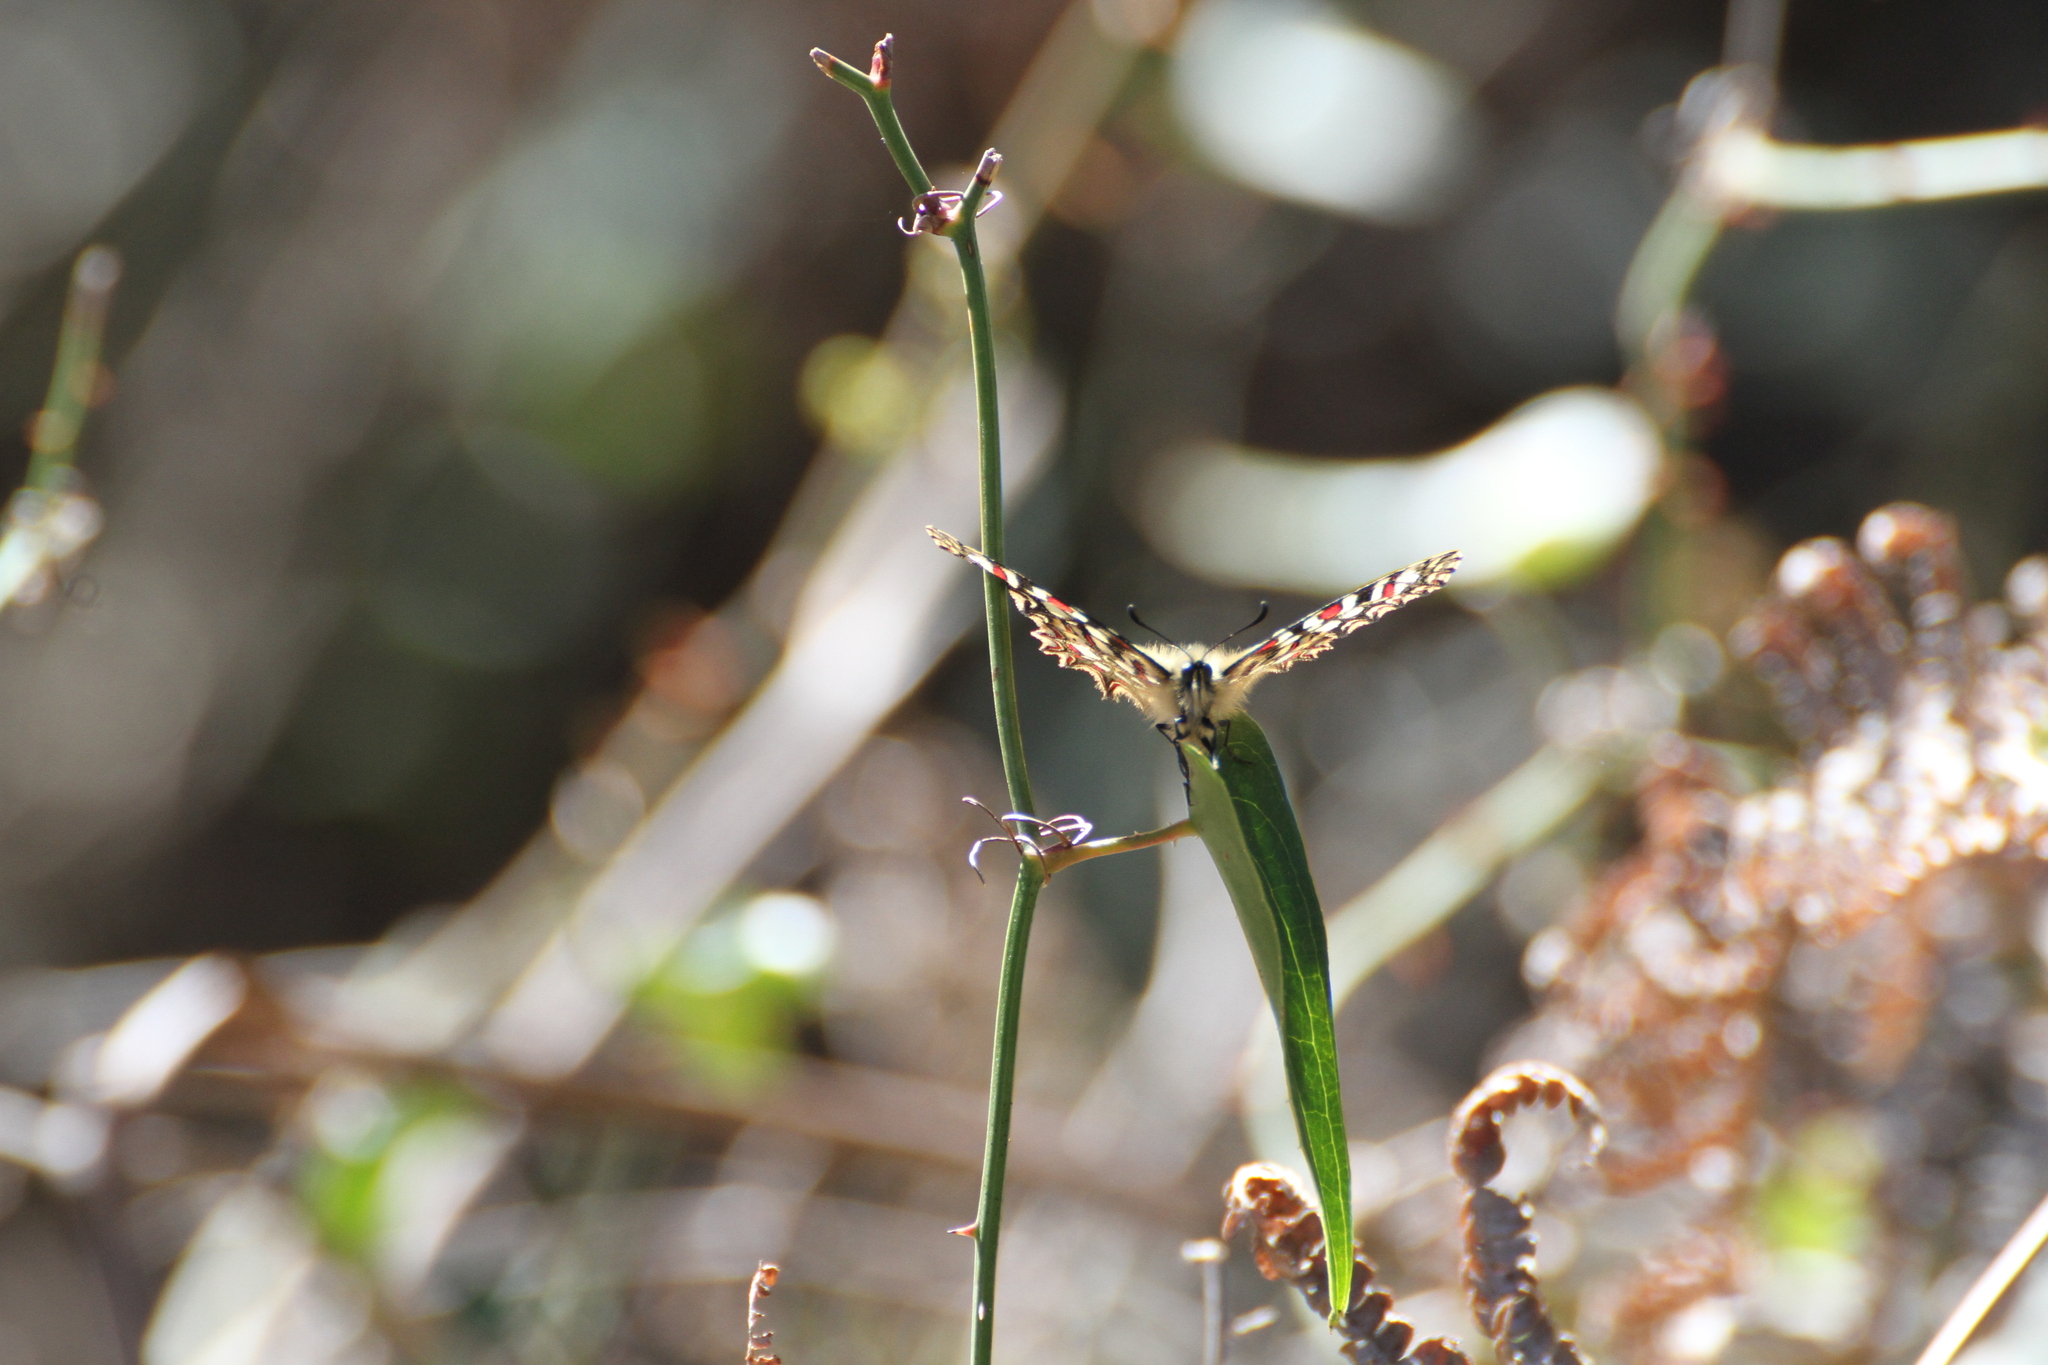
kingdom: Animalia
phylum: Arthropoda
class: Insecta
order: Lepidoptera
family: Papilionidae
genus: Zerynthia
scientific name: Zerynthia rumina
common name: Spanish festoon
